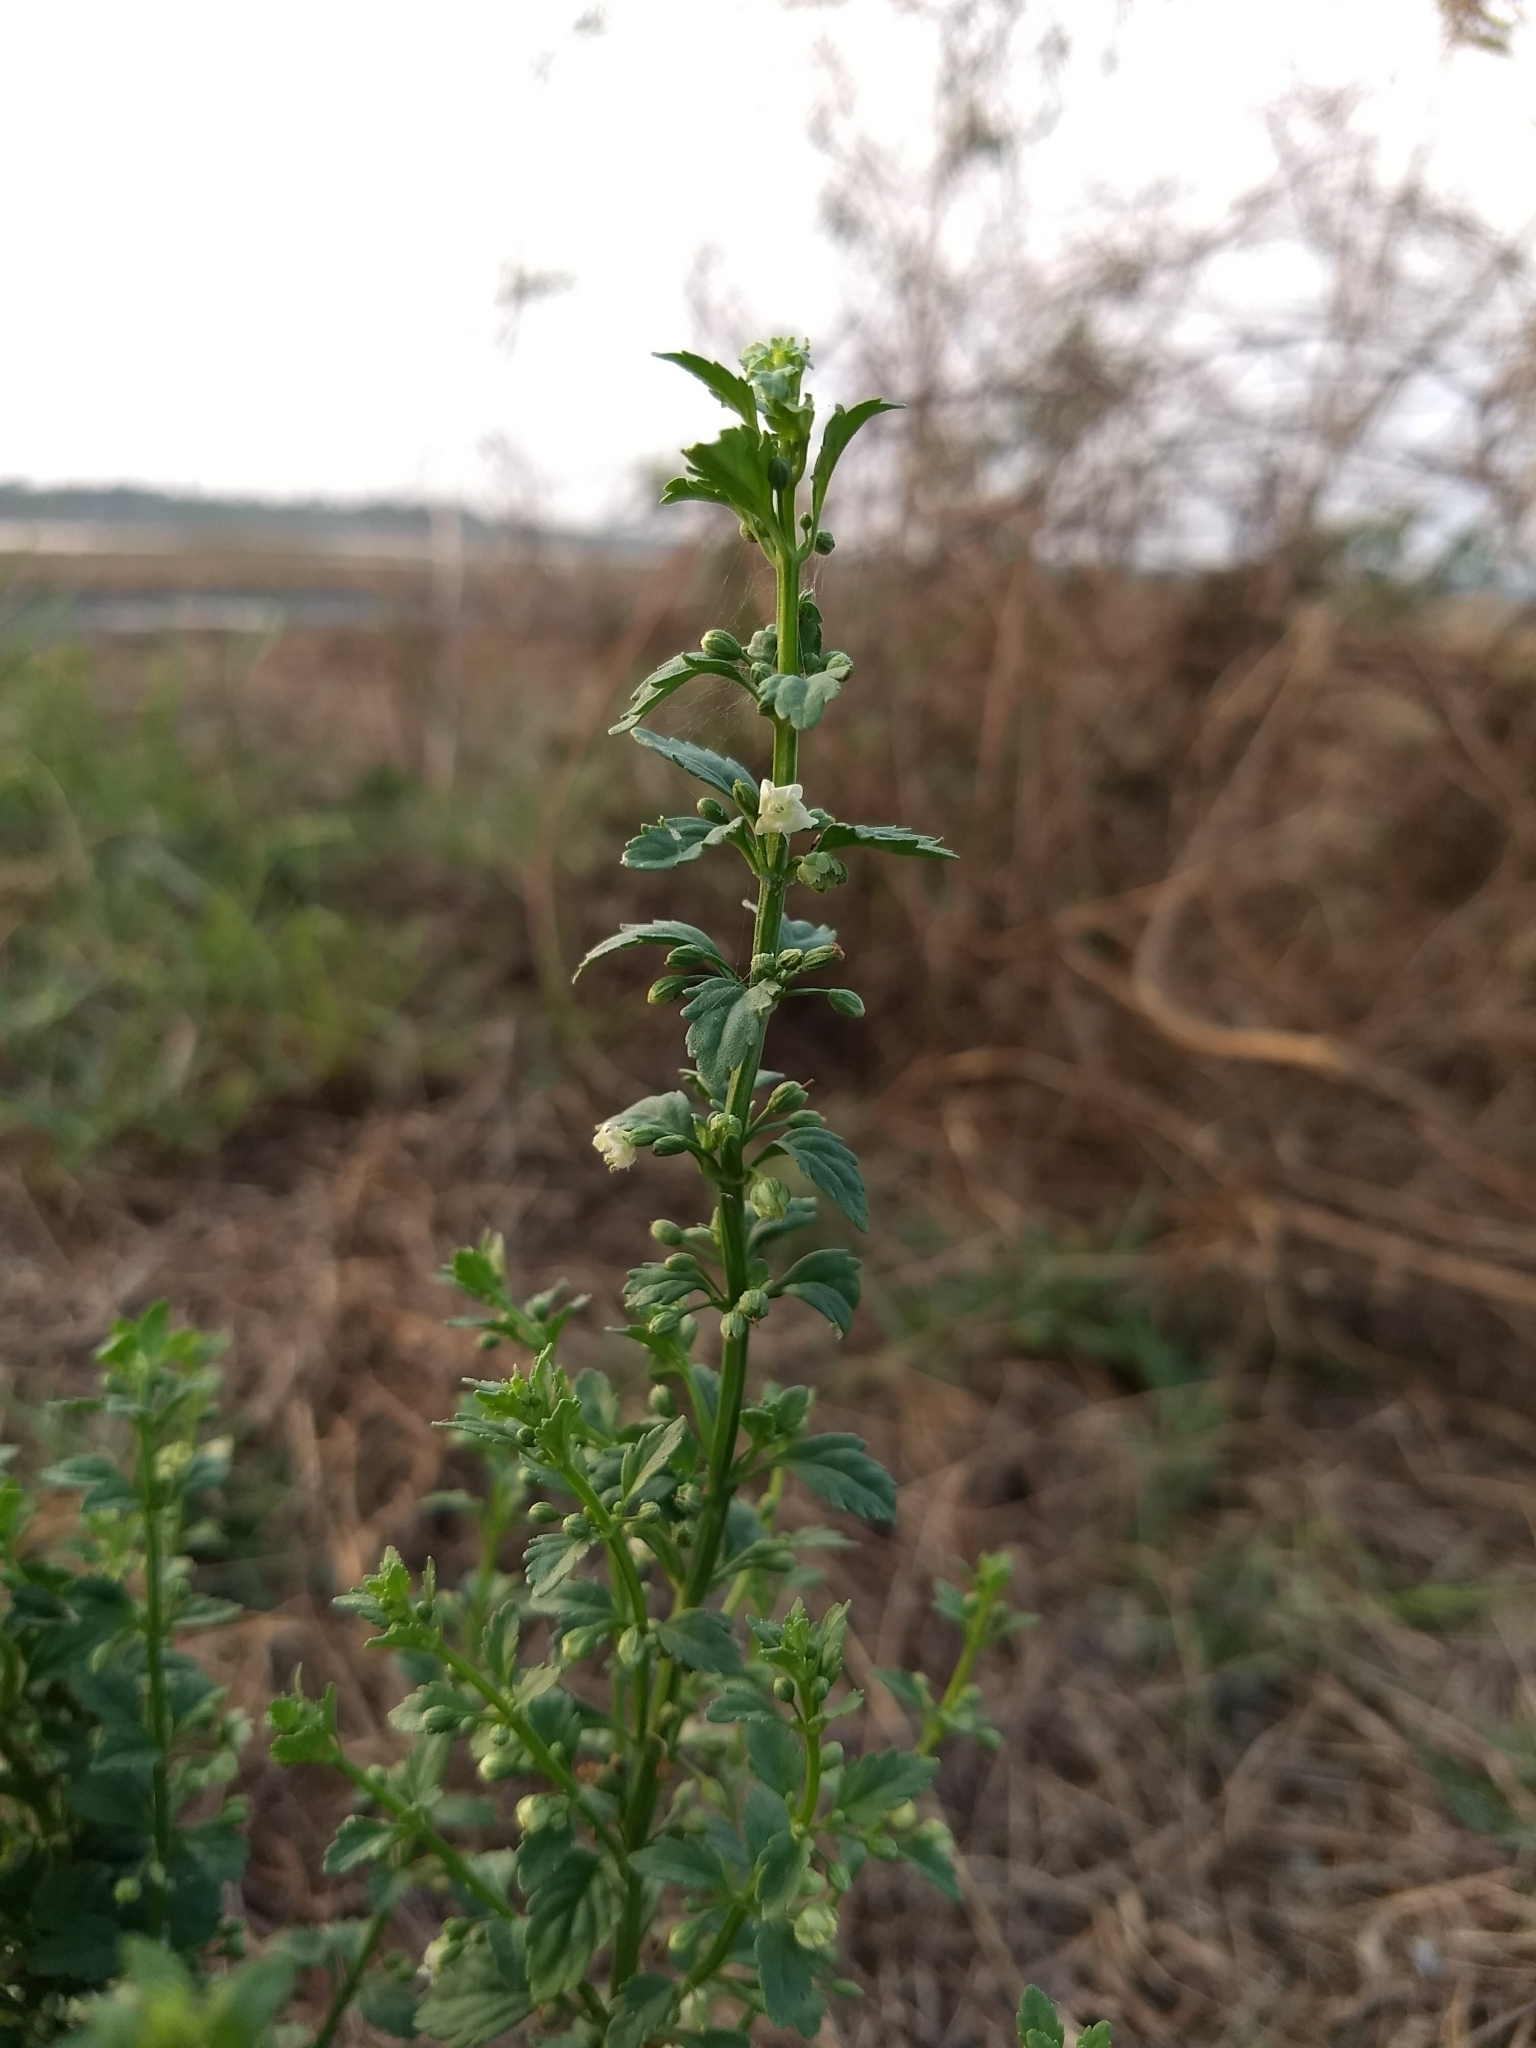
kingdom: Plantae
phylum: Tracheophyta
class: Magnoliopsida
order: Lamiales
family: Plantaginaceae
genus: Scoparia
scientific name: Scoparia dulcis
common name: Scoparia-weed
